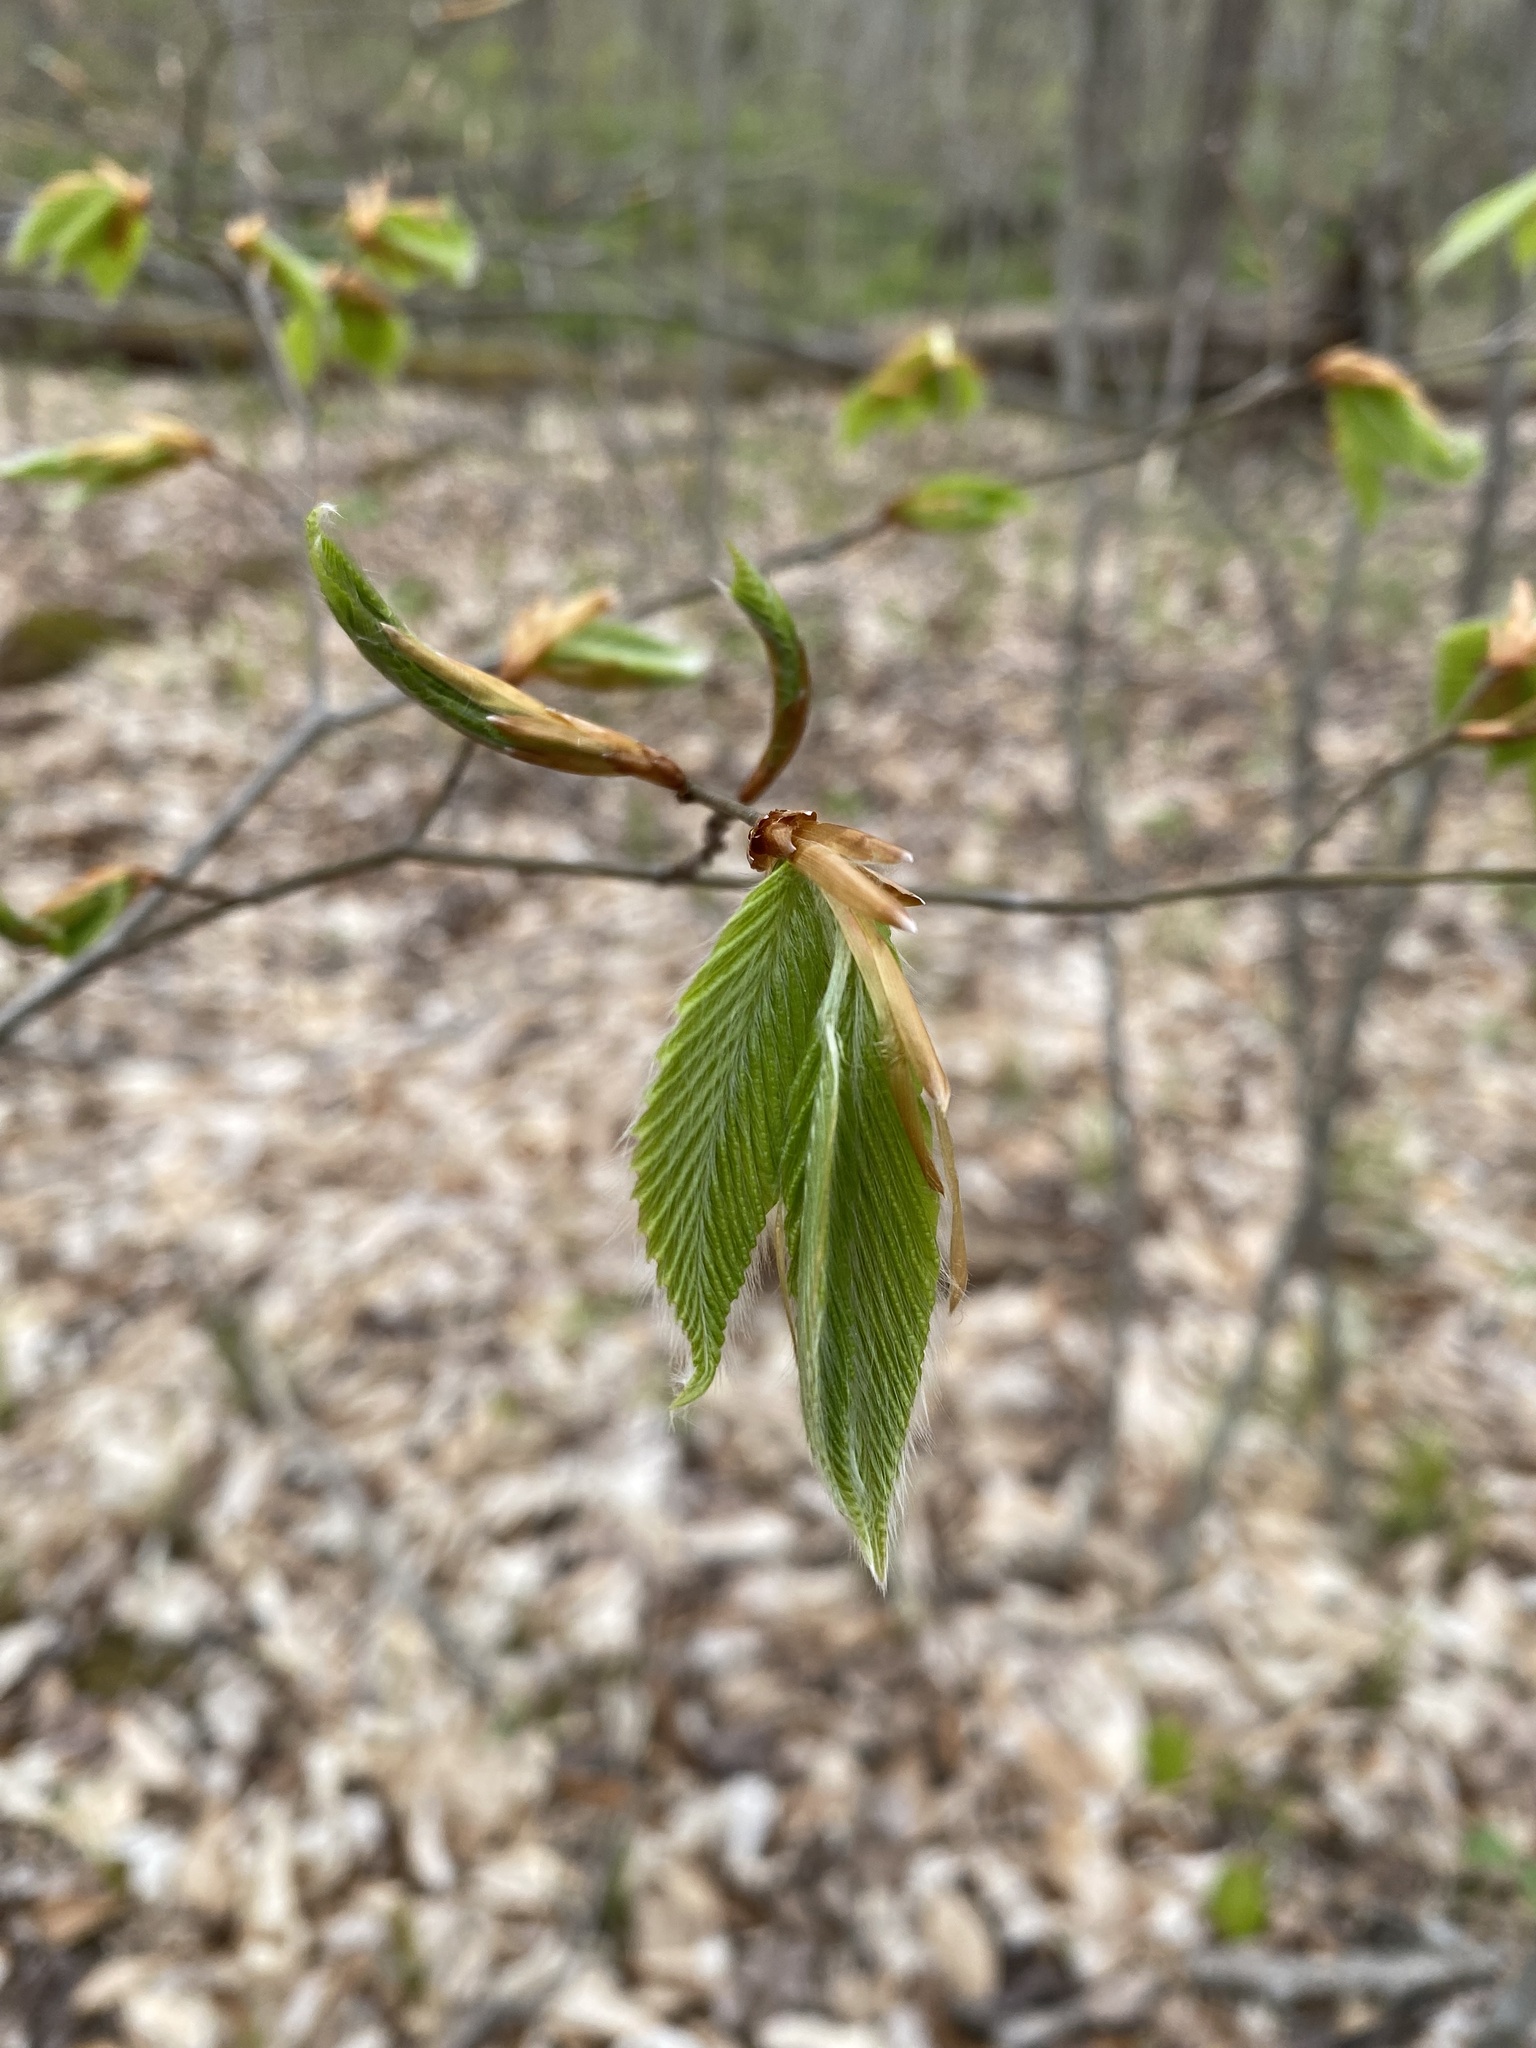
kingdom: Plantae
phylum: Tracheophyta
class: Magnoliopsida
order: Fagales
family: Fagaceae
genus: Fagus
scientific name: Fagus grandifolia
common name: American beech
